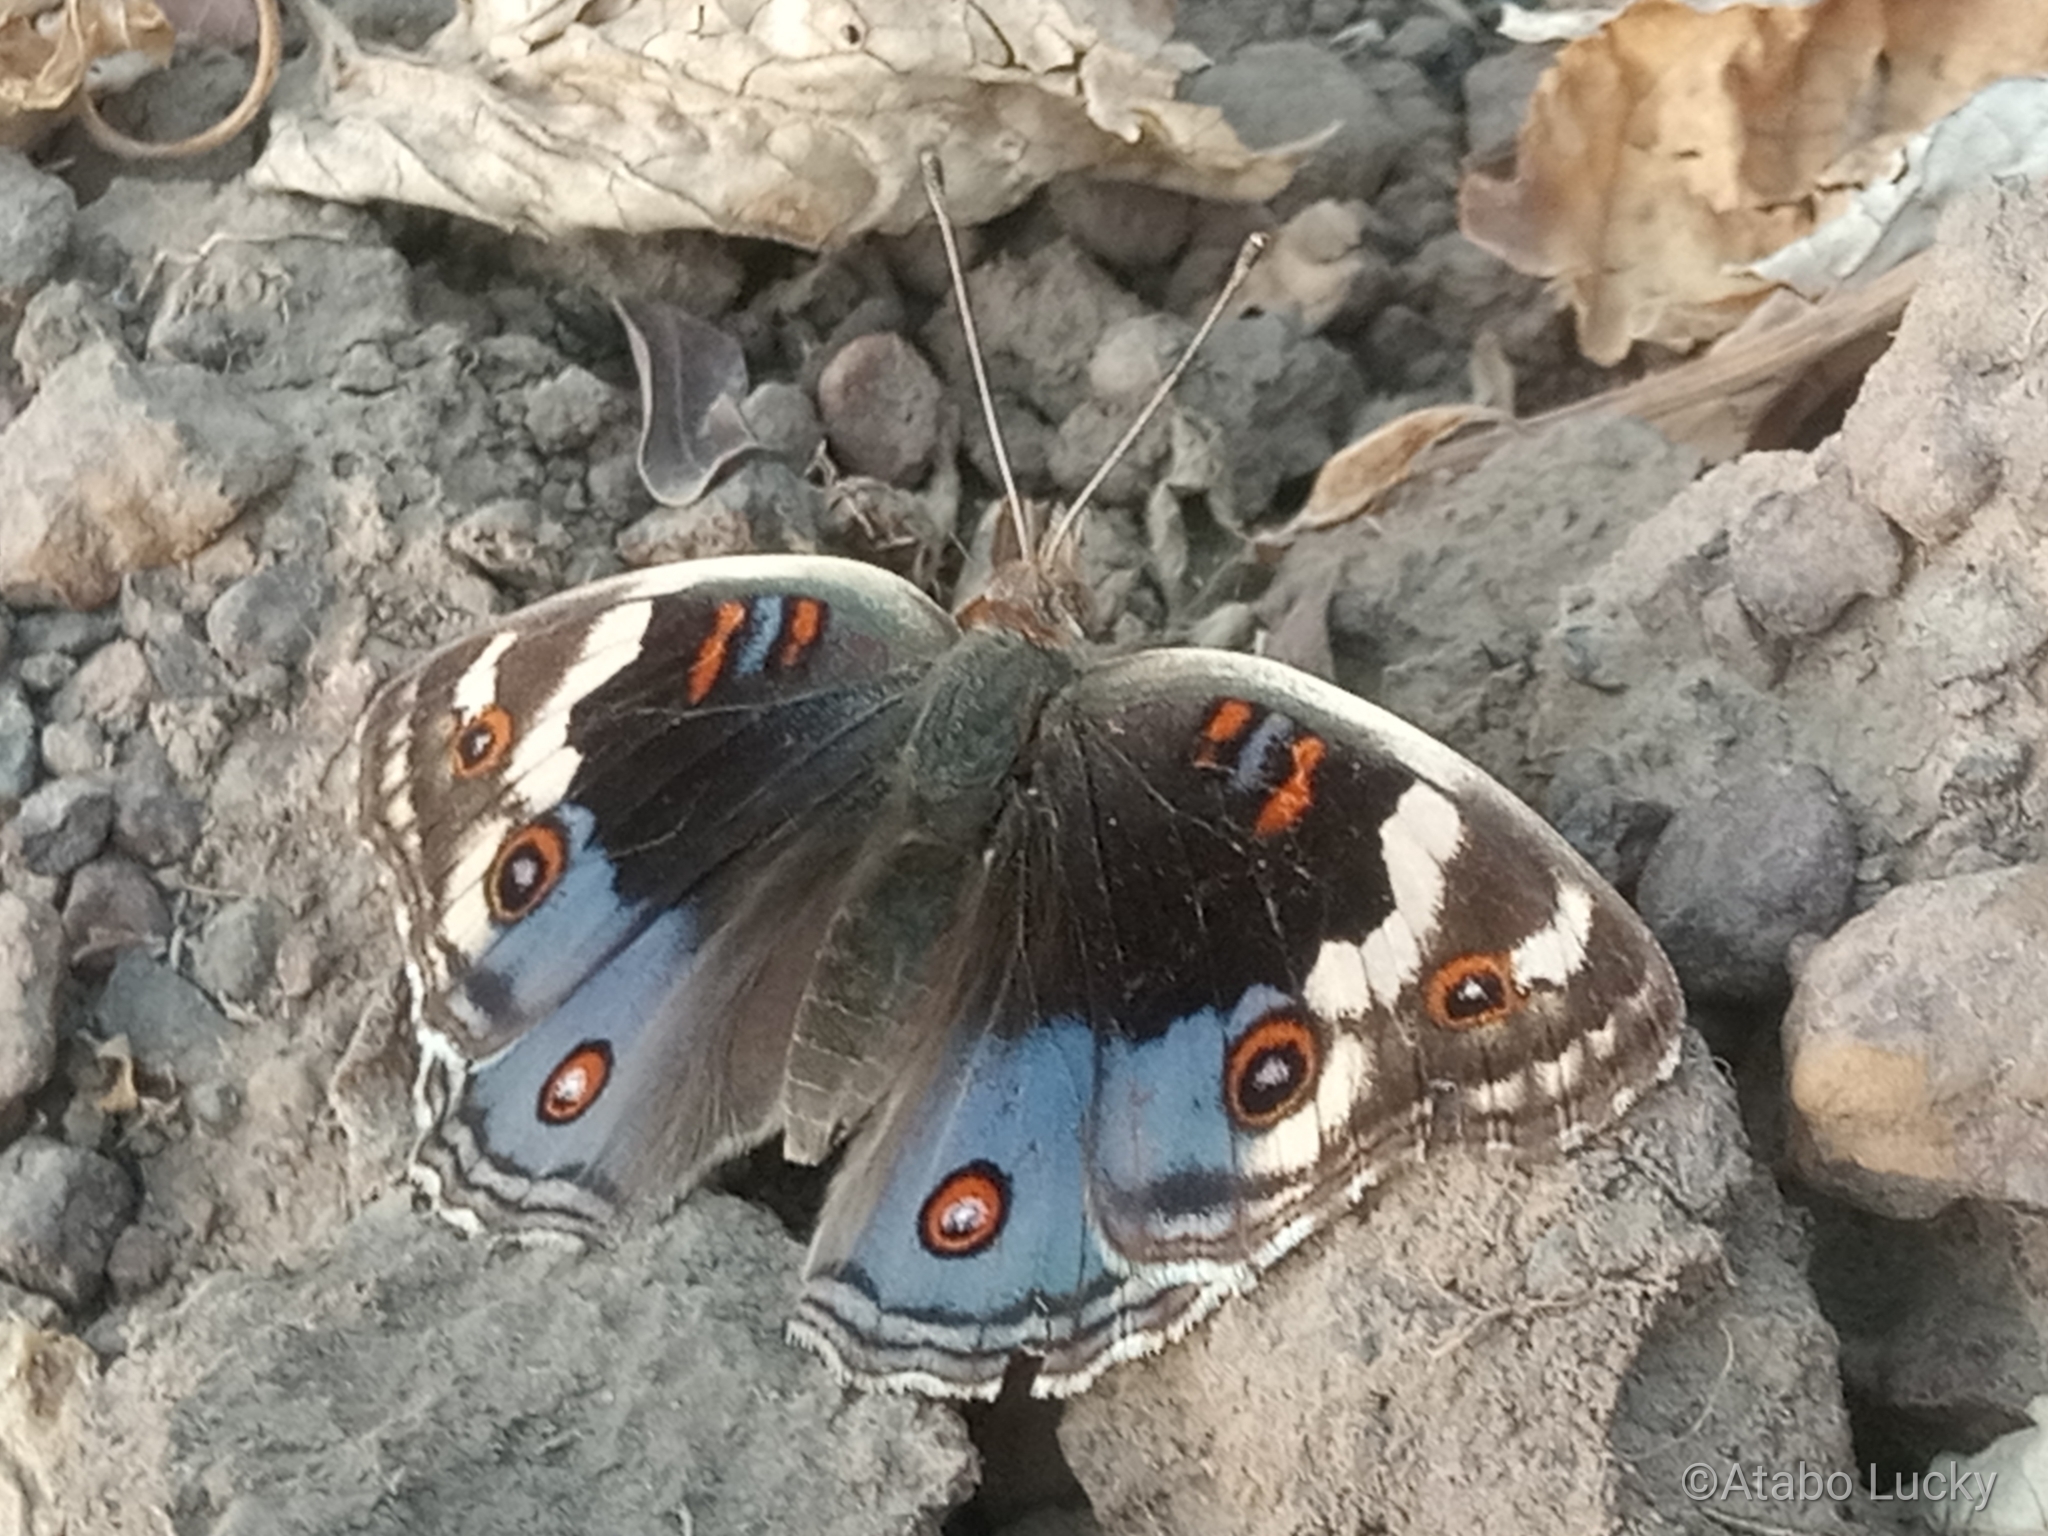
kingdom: Animalia
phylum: Arthropoda
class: Insecta
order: Lepidoptera
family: Nymphalidae
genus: Junonia
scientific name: Junonia orithya
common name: Blue pansy
